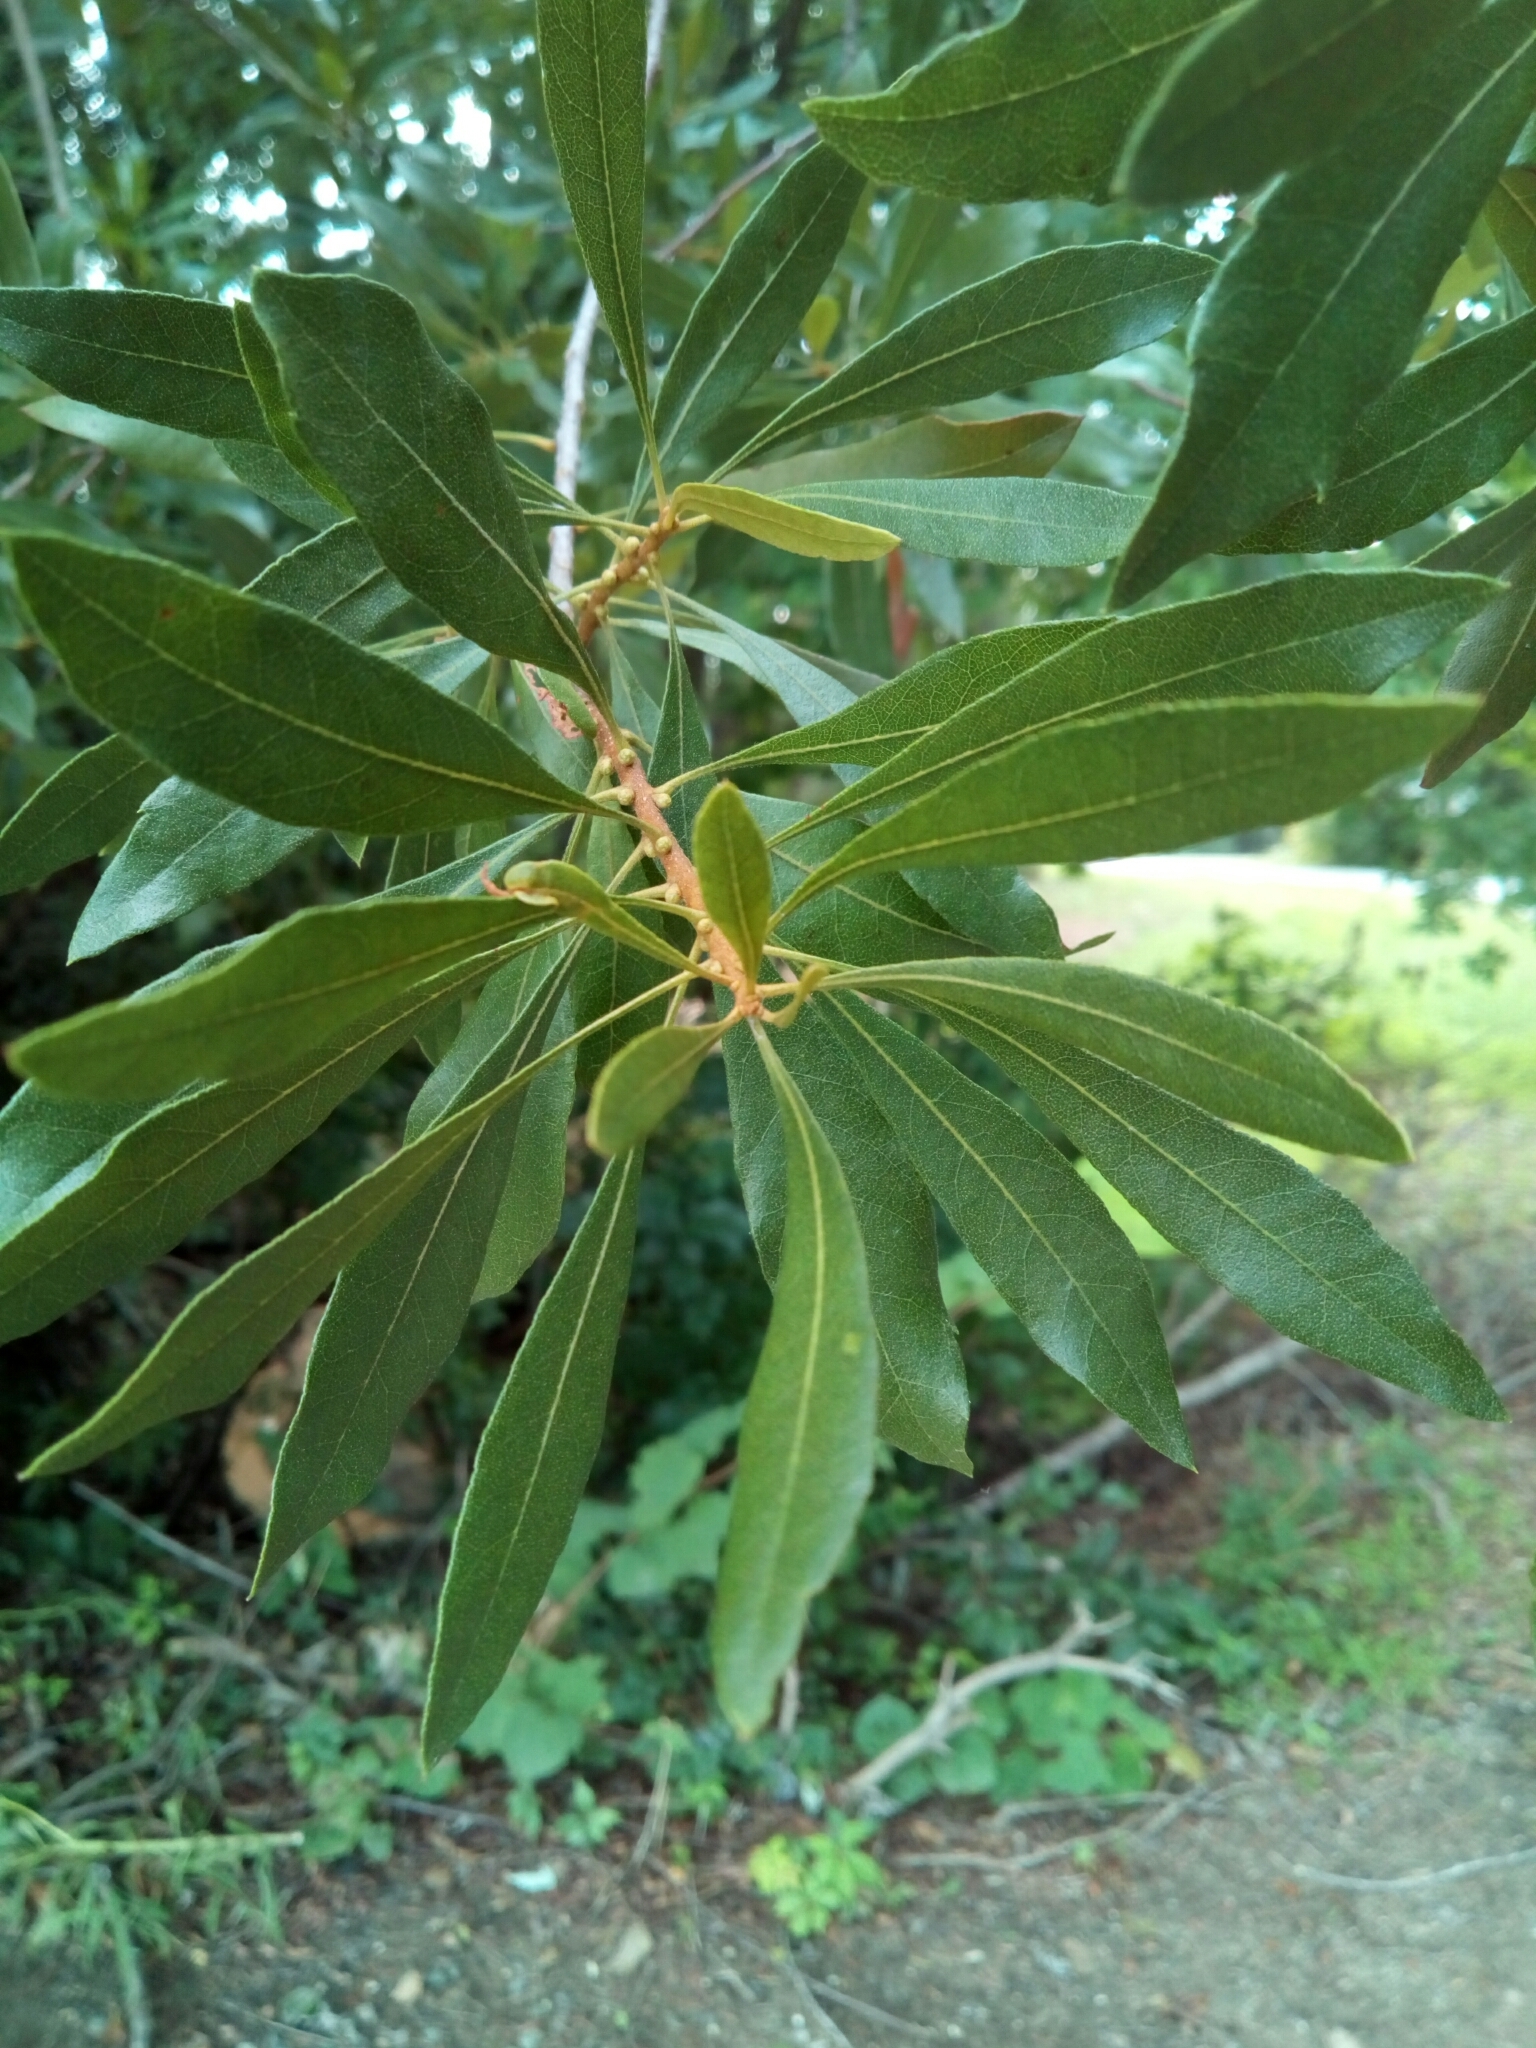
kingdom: Plantae
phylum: Tracheophyta
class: Magnoliopsida
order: Fagales
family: Myricaceae
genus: Morella
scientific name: Morella cerifera
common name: Wax myrtle
